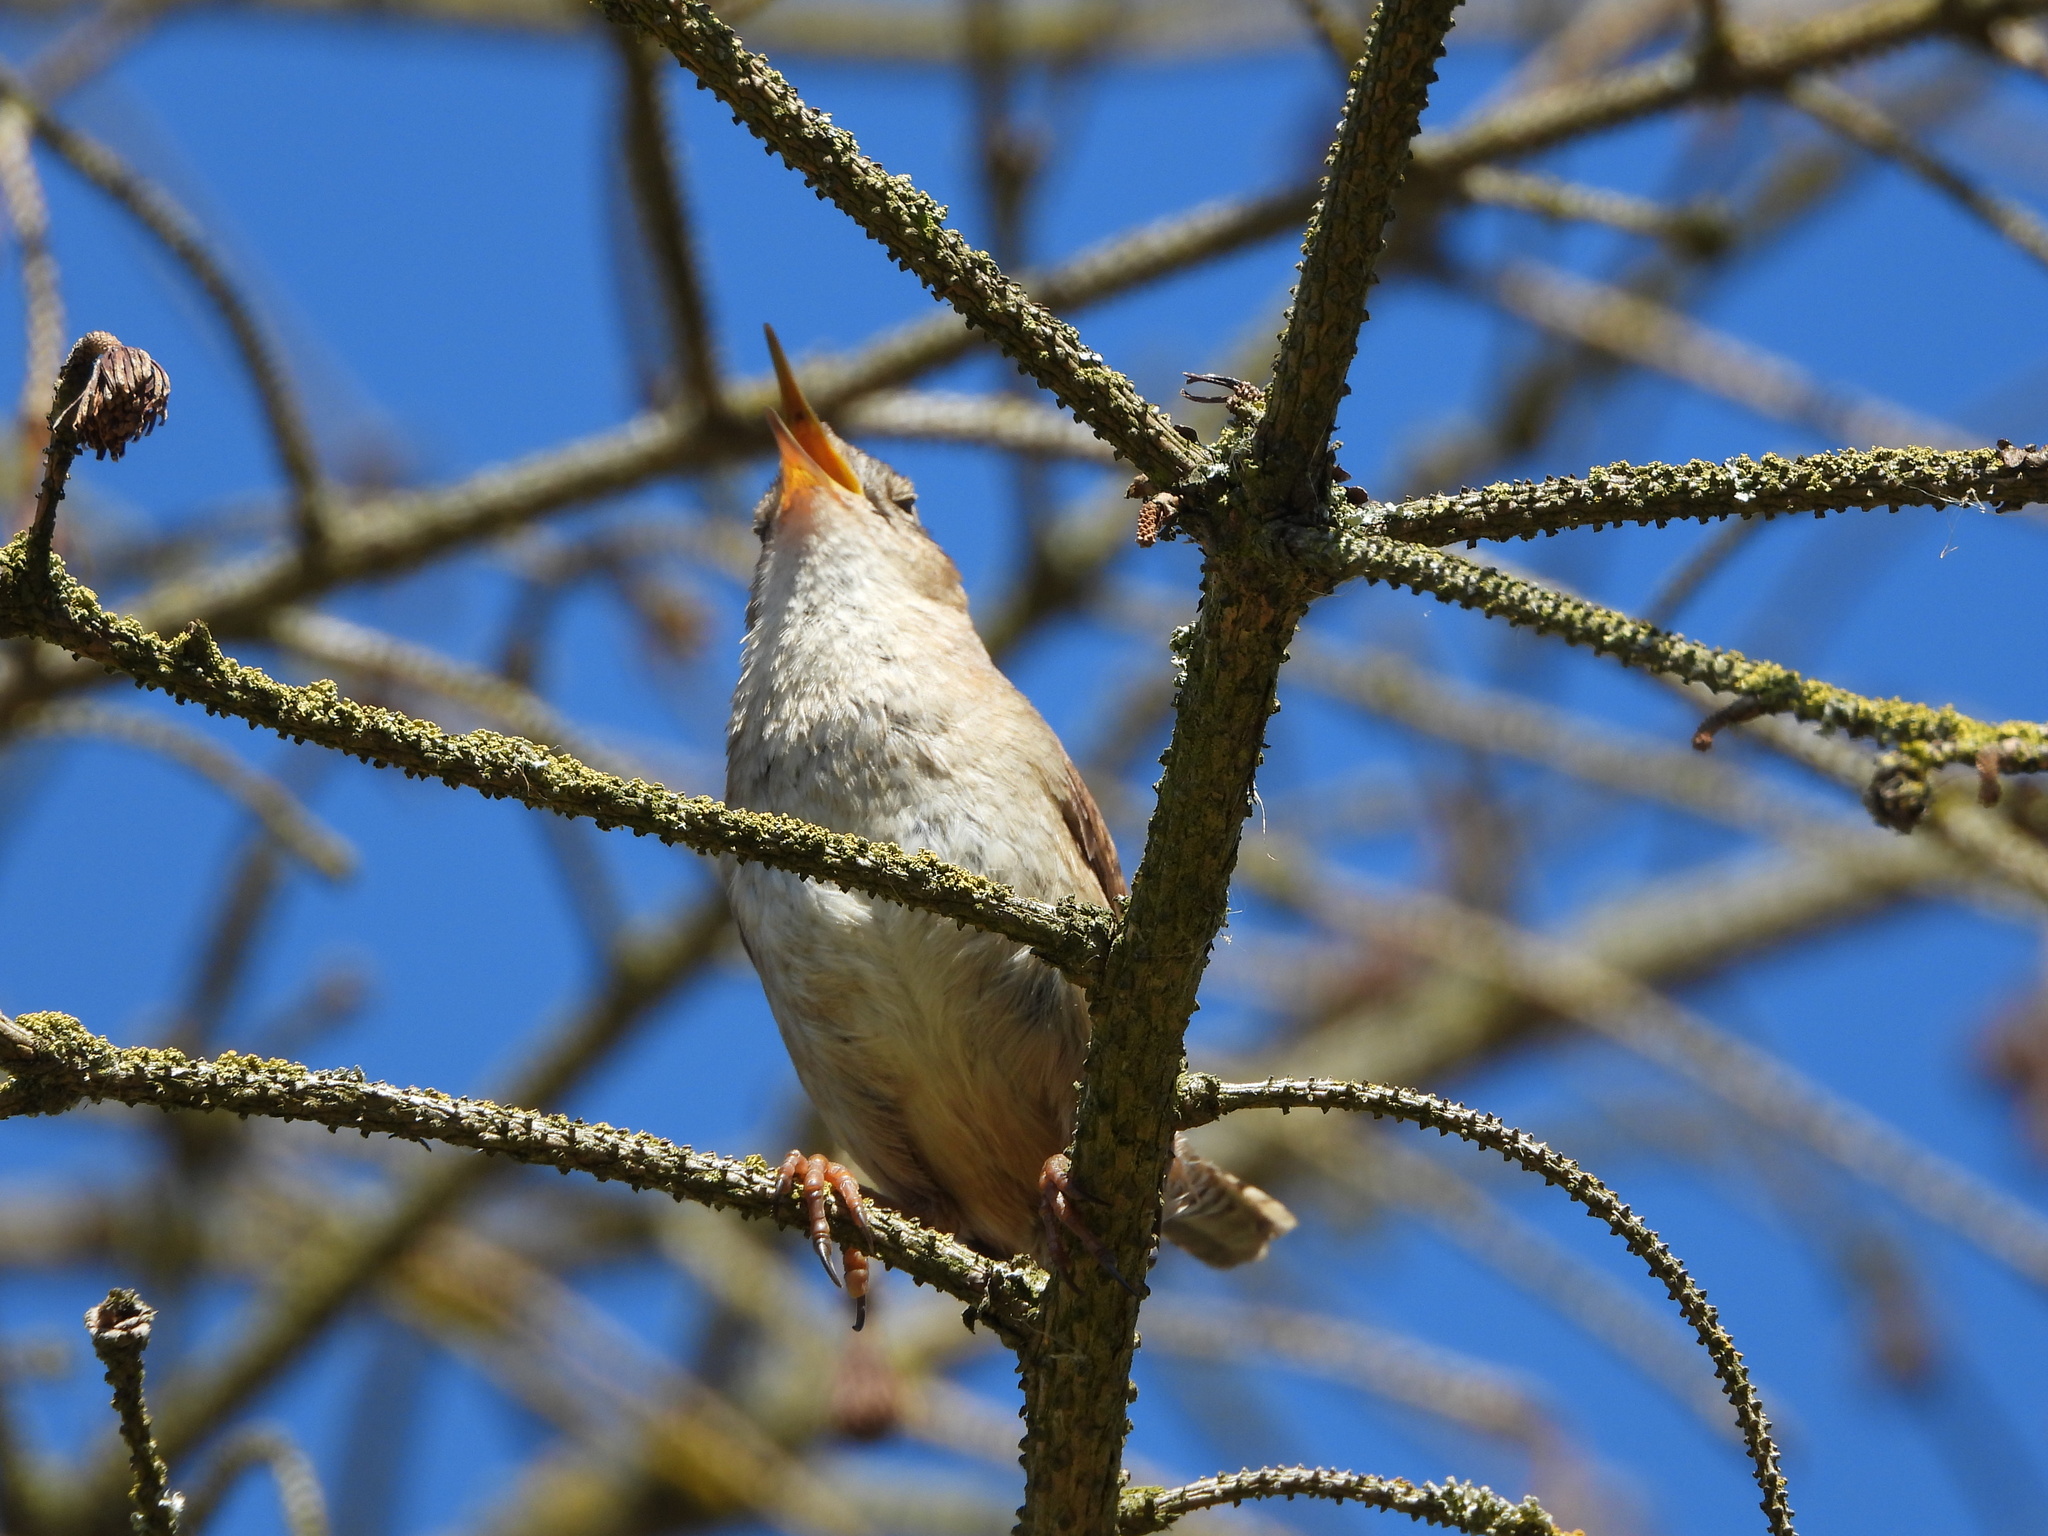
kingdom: Animalia
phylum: Chordata
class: Aves
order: Passeriformes
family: Troglodytidae
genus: Cistothorus
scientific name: Cistothorus palustris
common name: Marsh wren
